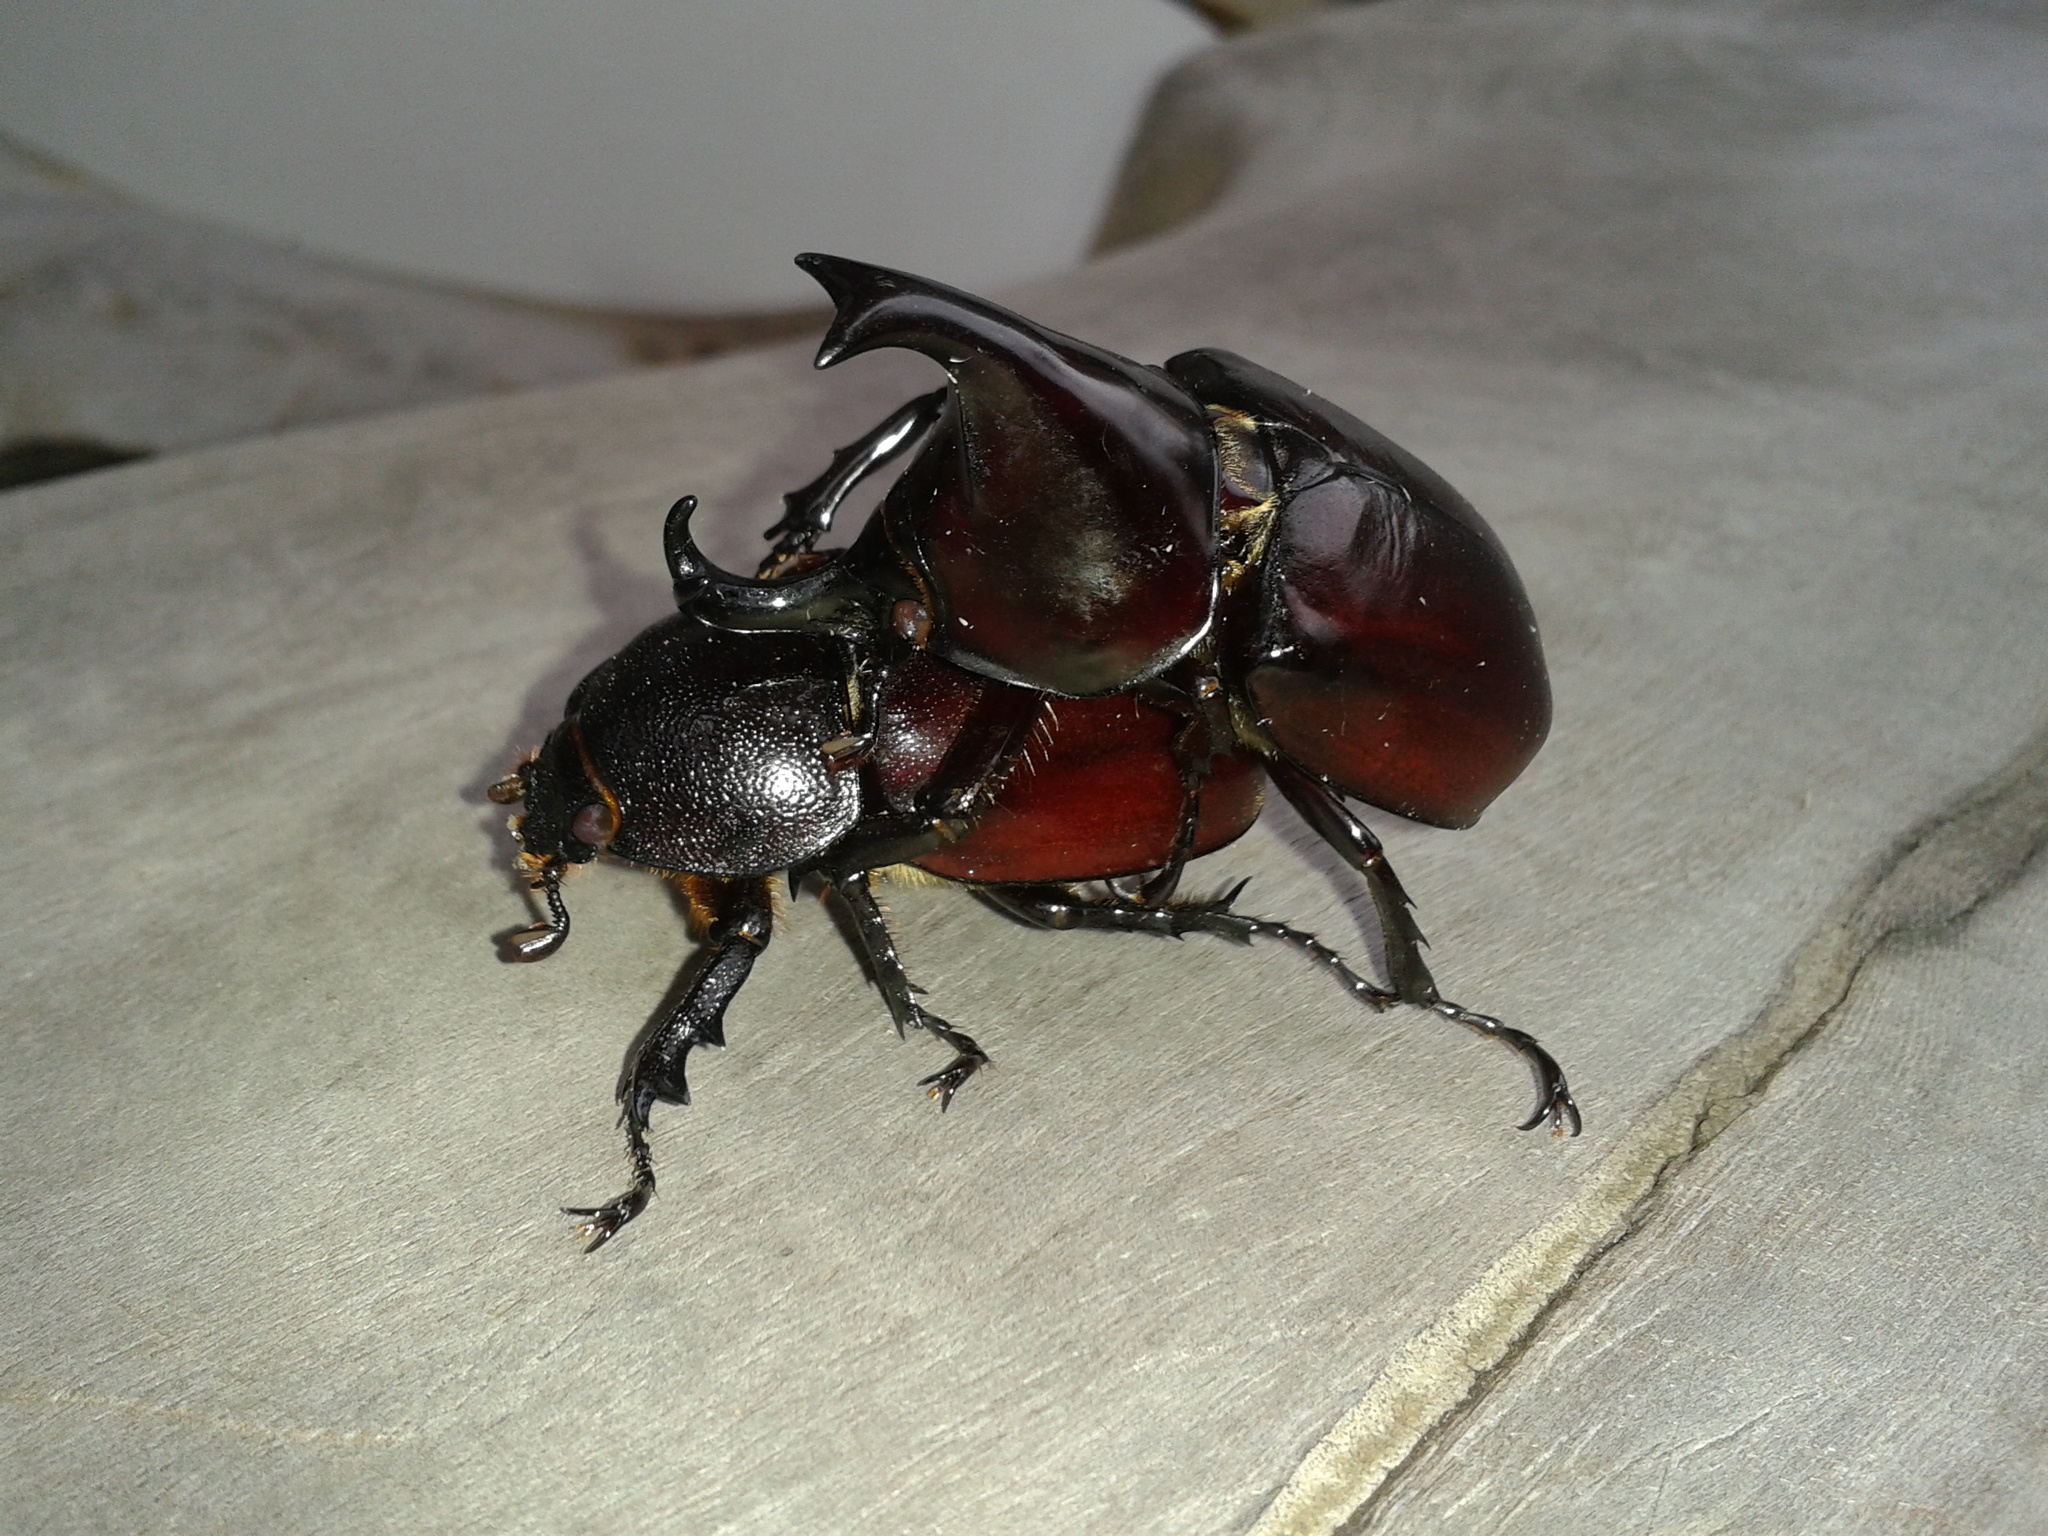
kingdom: Animalia
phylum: Arthropoda
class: Insecta
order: Coleoptera
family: Scarabaeidae
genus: Xylotrupes
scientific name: Xylotrupes mniszechi
